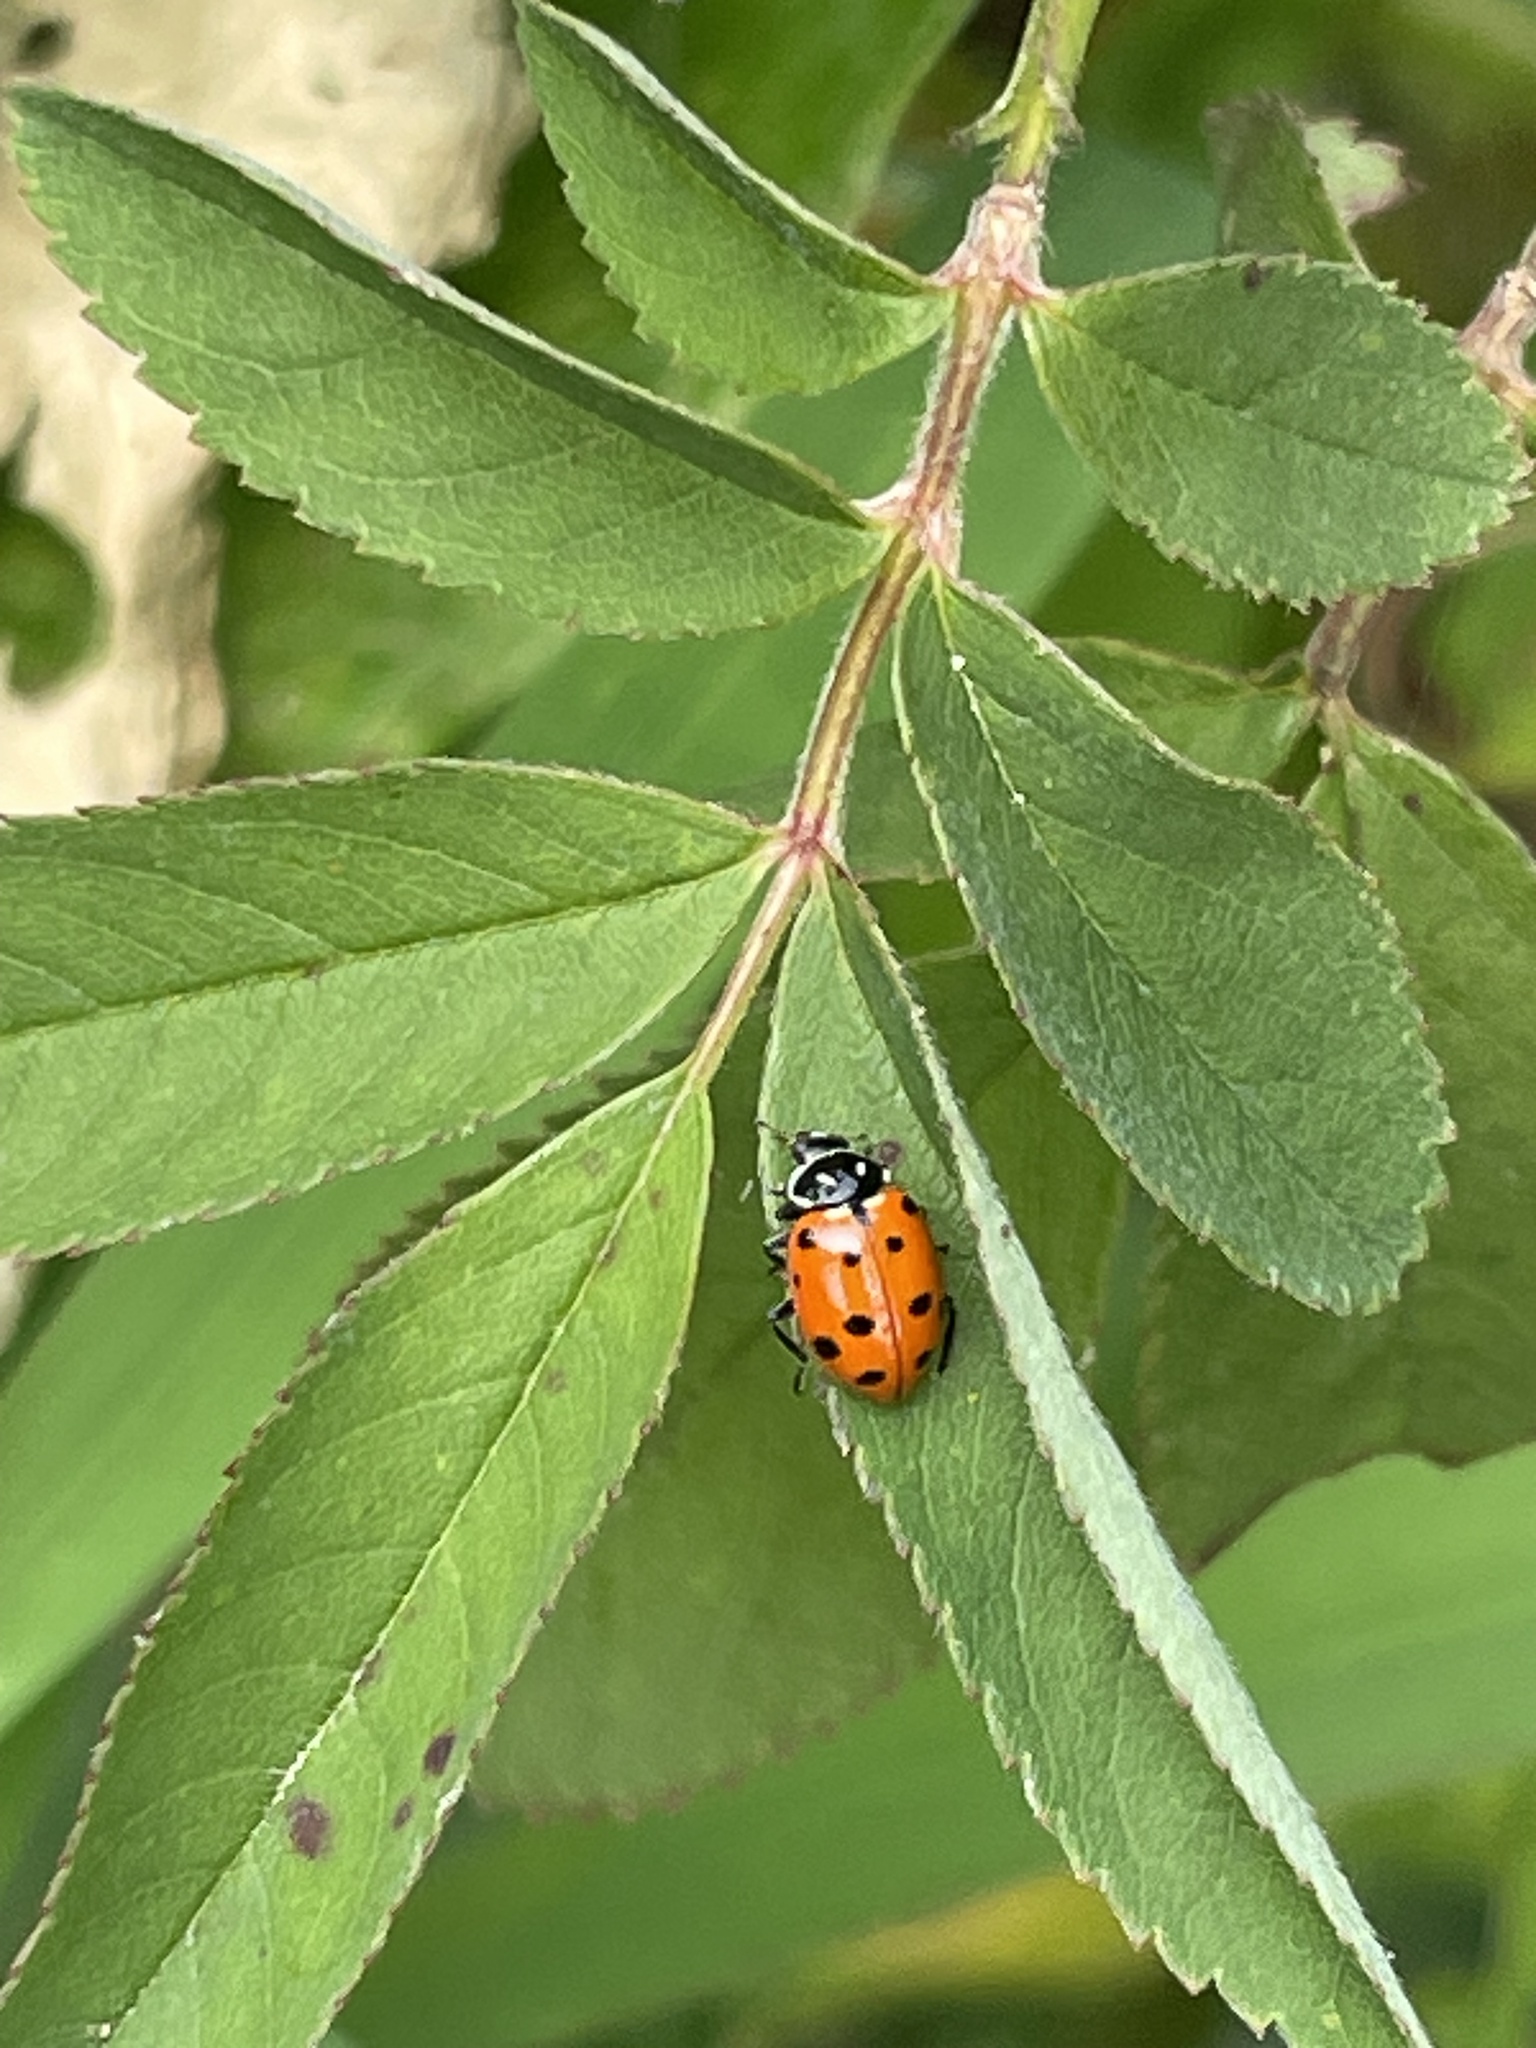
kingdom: Animalia
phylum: Arthropoda
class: Insecta
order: Coleoptera
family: Coccinellidae
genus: Hippodamia
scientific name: Hippodamia convergens
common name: Convergent lady beetle
